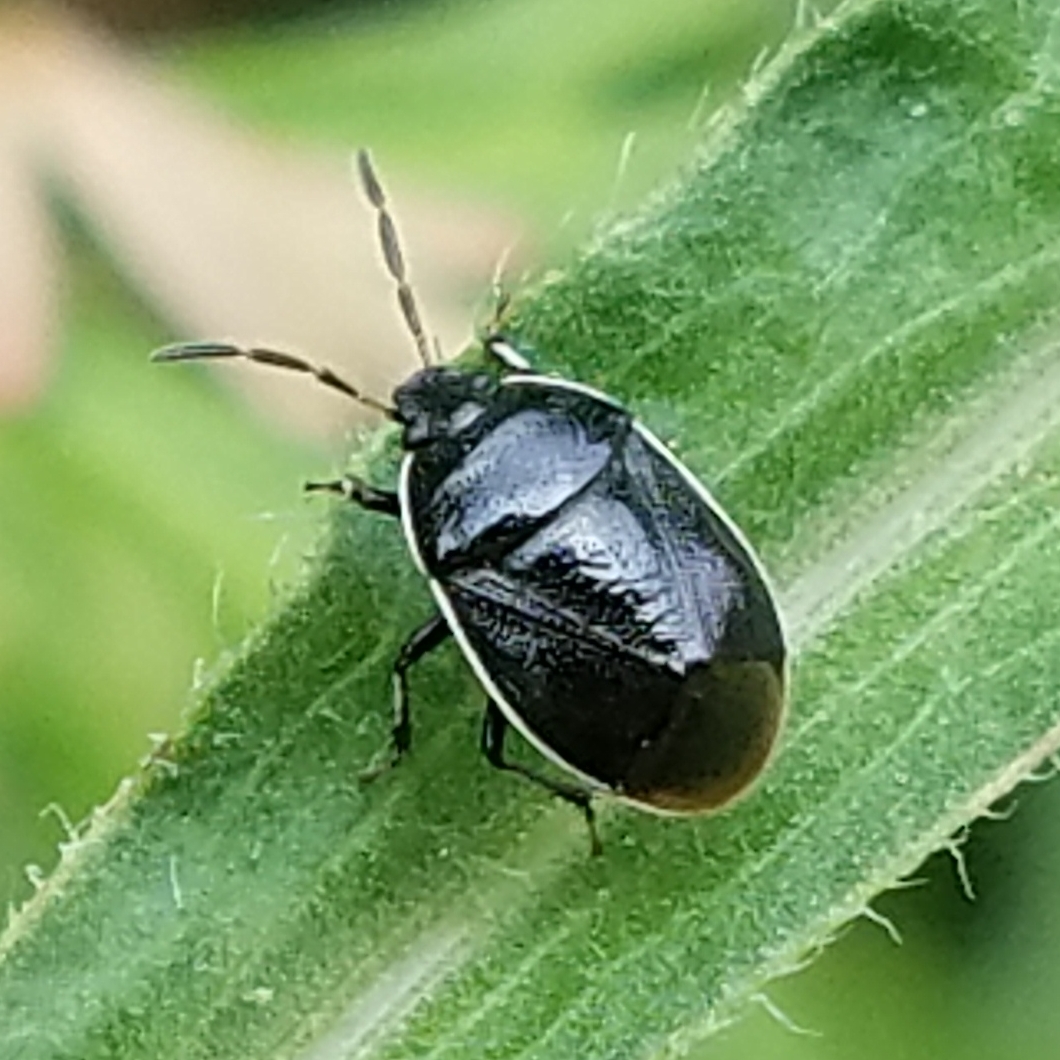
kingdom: Animalia
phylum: Arthropoda
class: Insecta
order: Hemiptera
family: Cydnidae
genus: Sehirus
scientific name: Sehirus cinctus
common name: White-margined burrower bug
